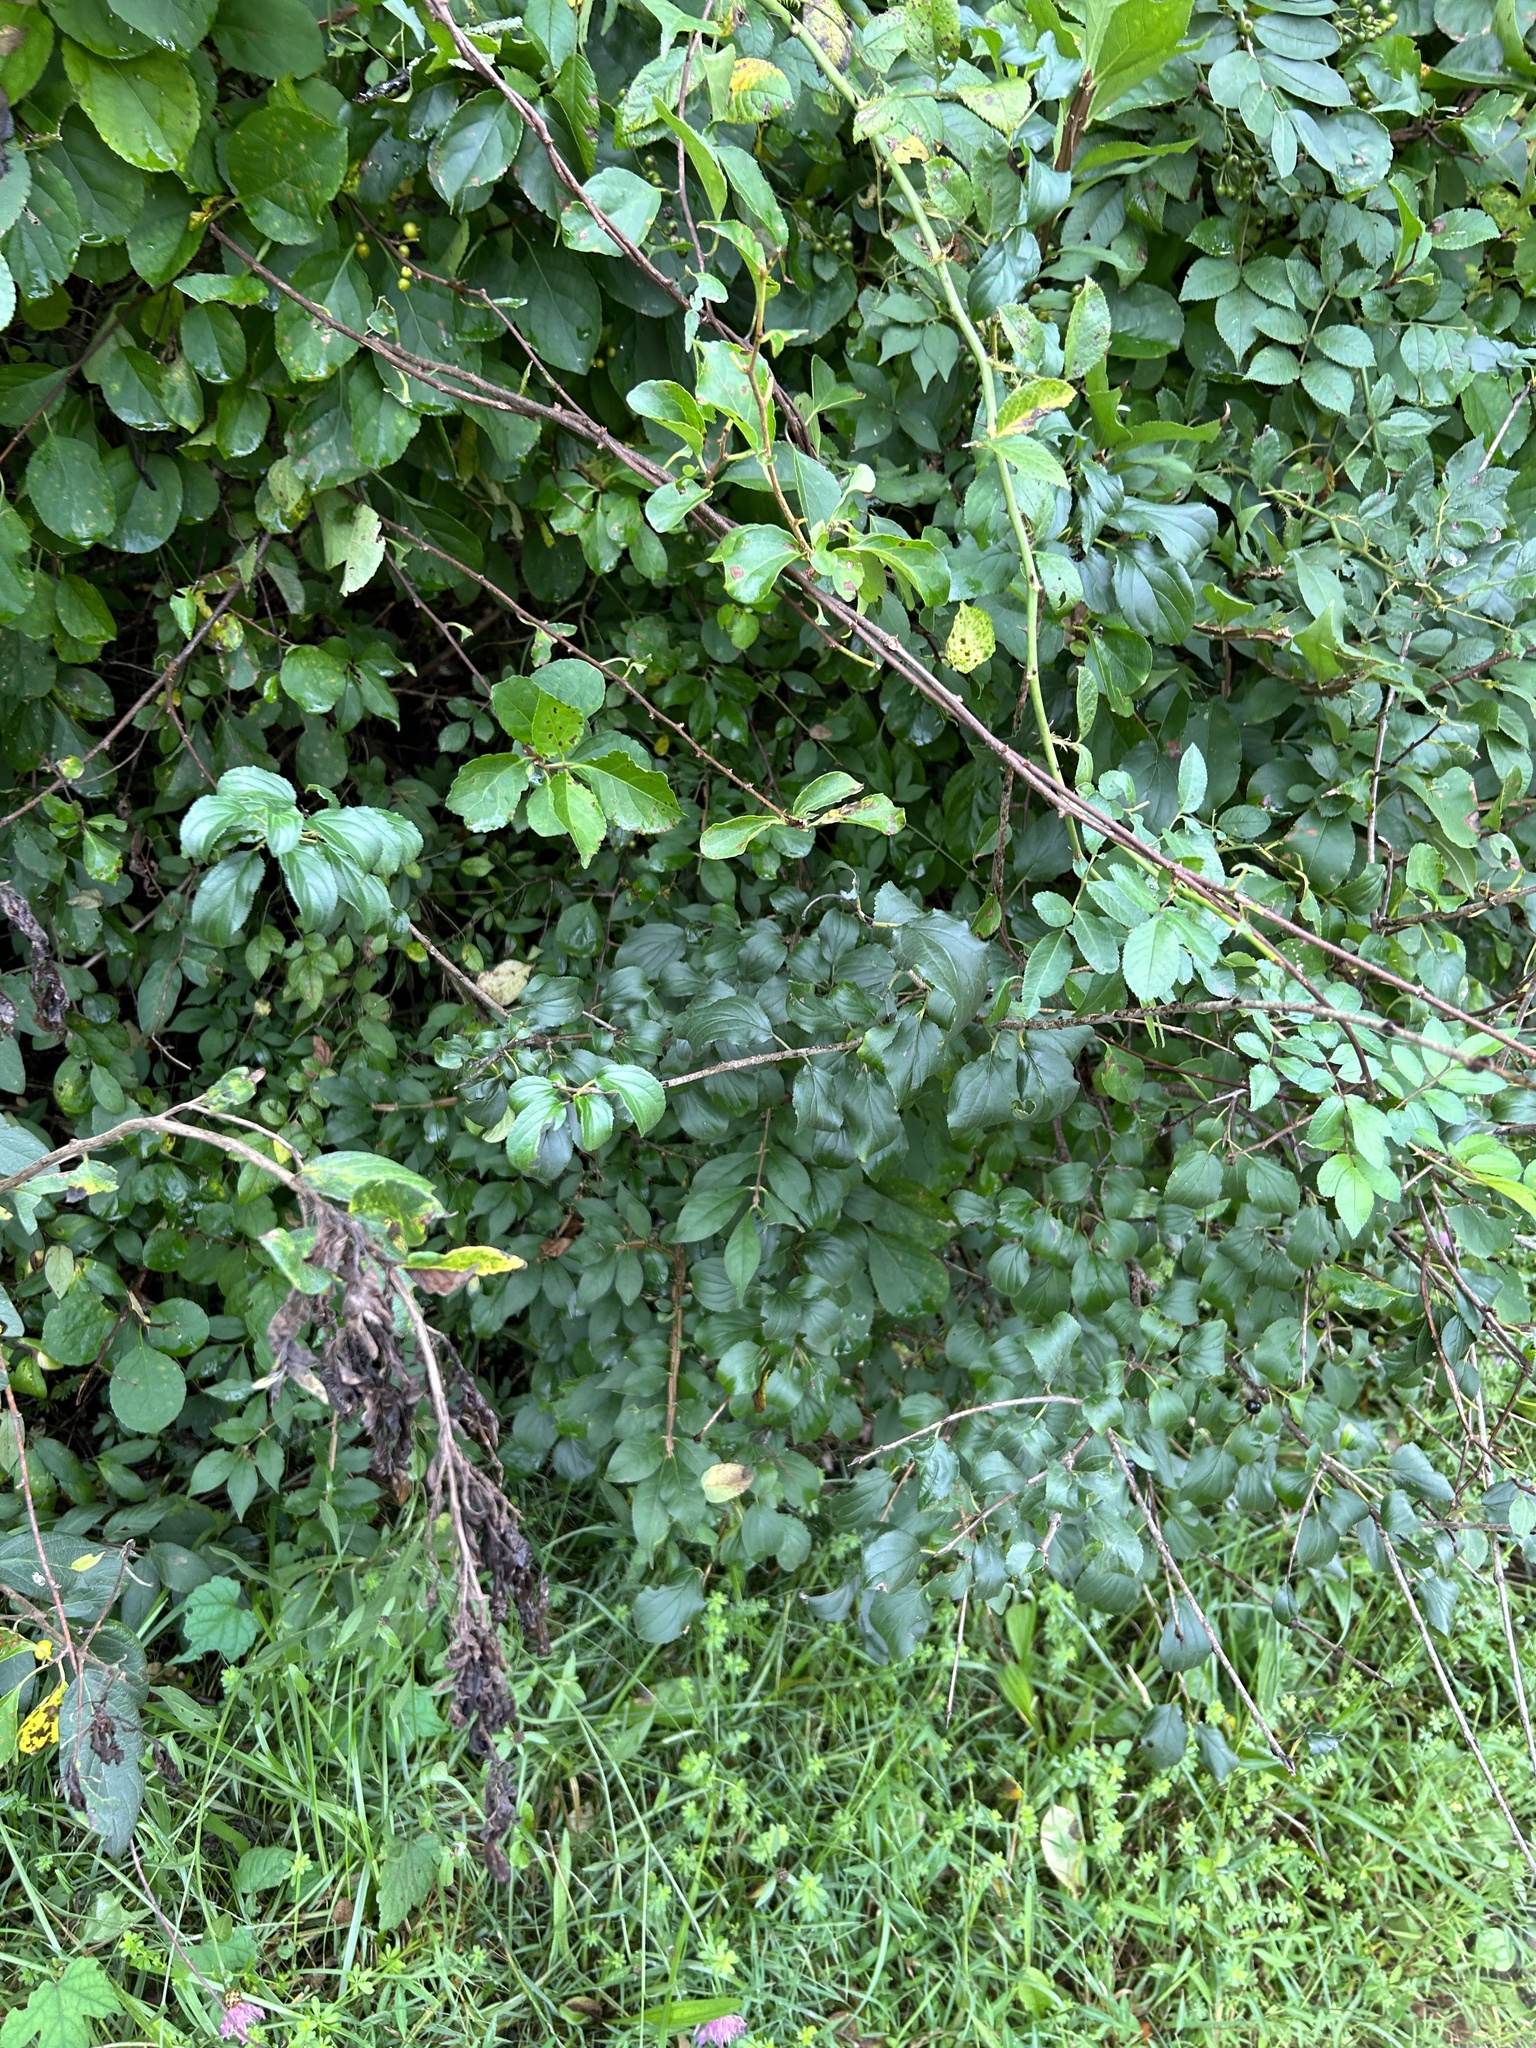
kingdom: Plantae
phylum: Tracheophyta
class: Magnoliopsida
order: Rosales
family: Rhamnaceae
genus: Rhamnus
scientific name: Rhamnus cathartica
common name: Common buckthorn
